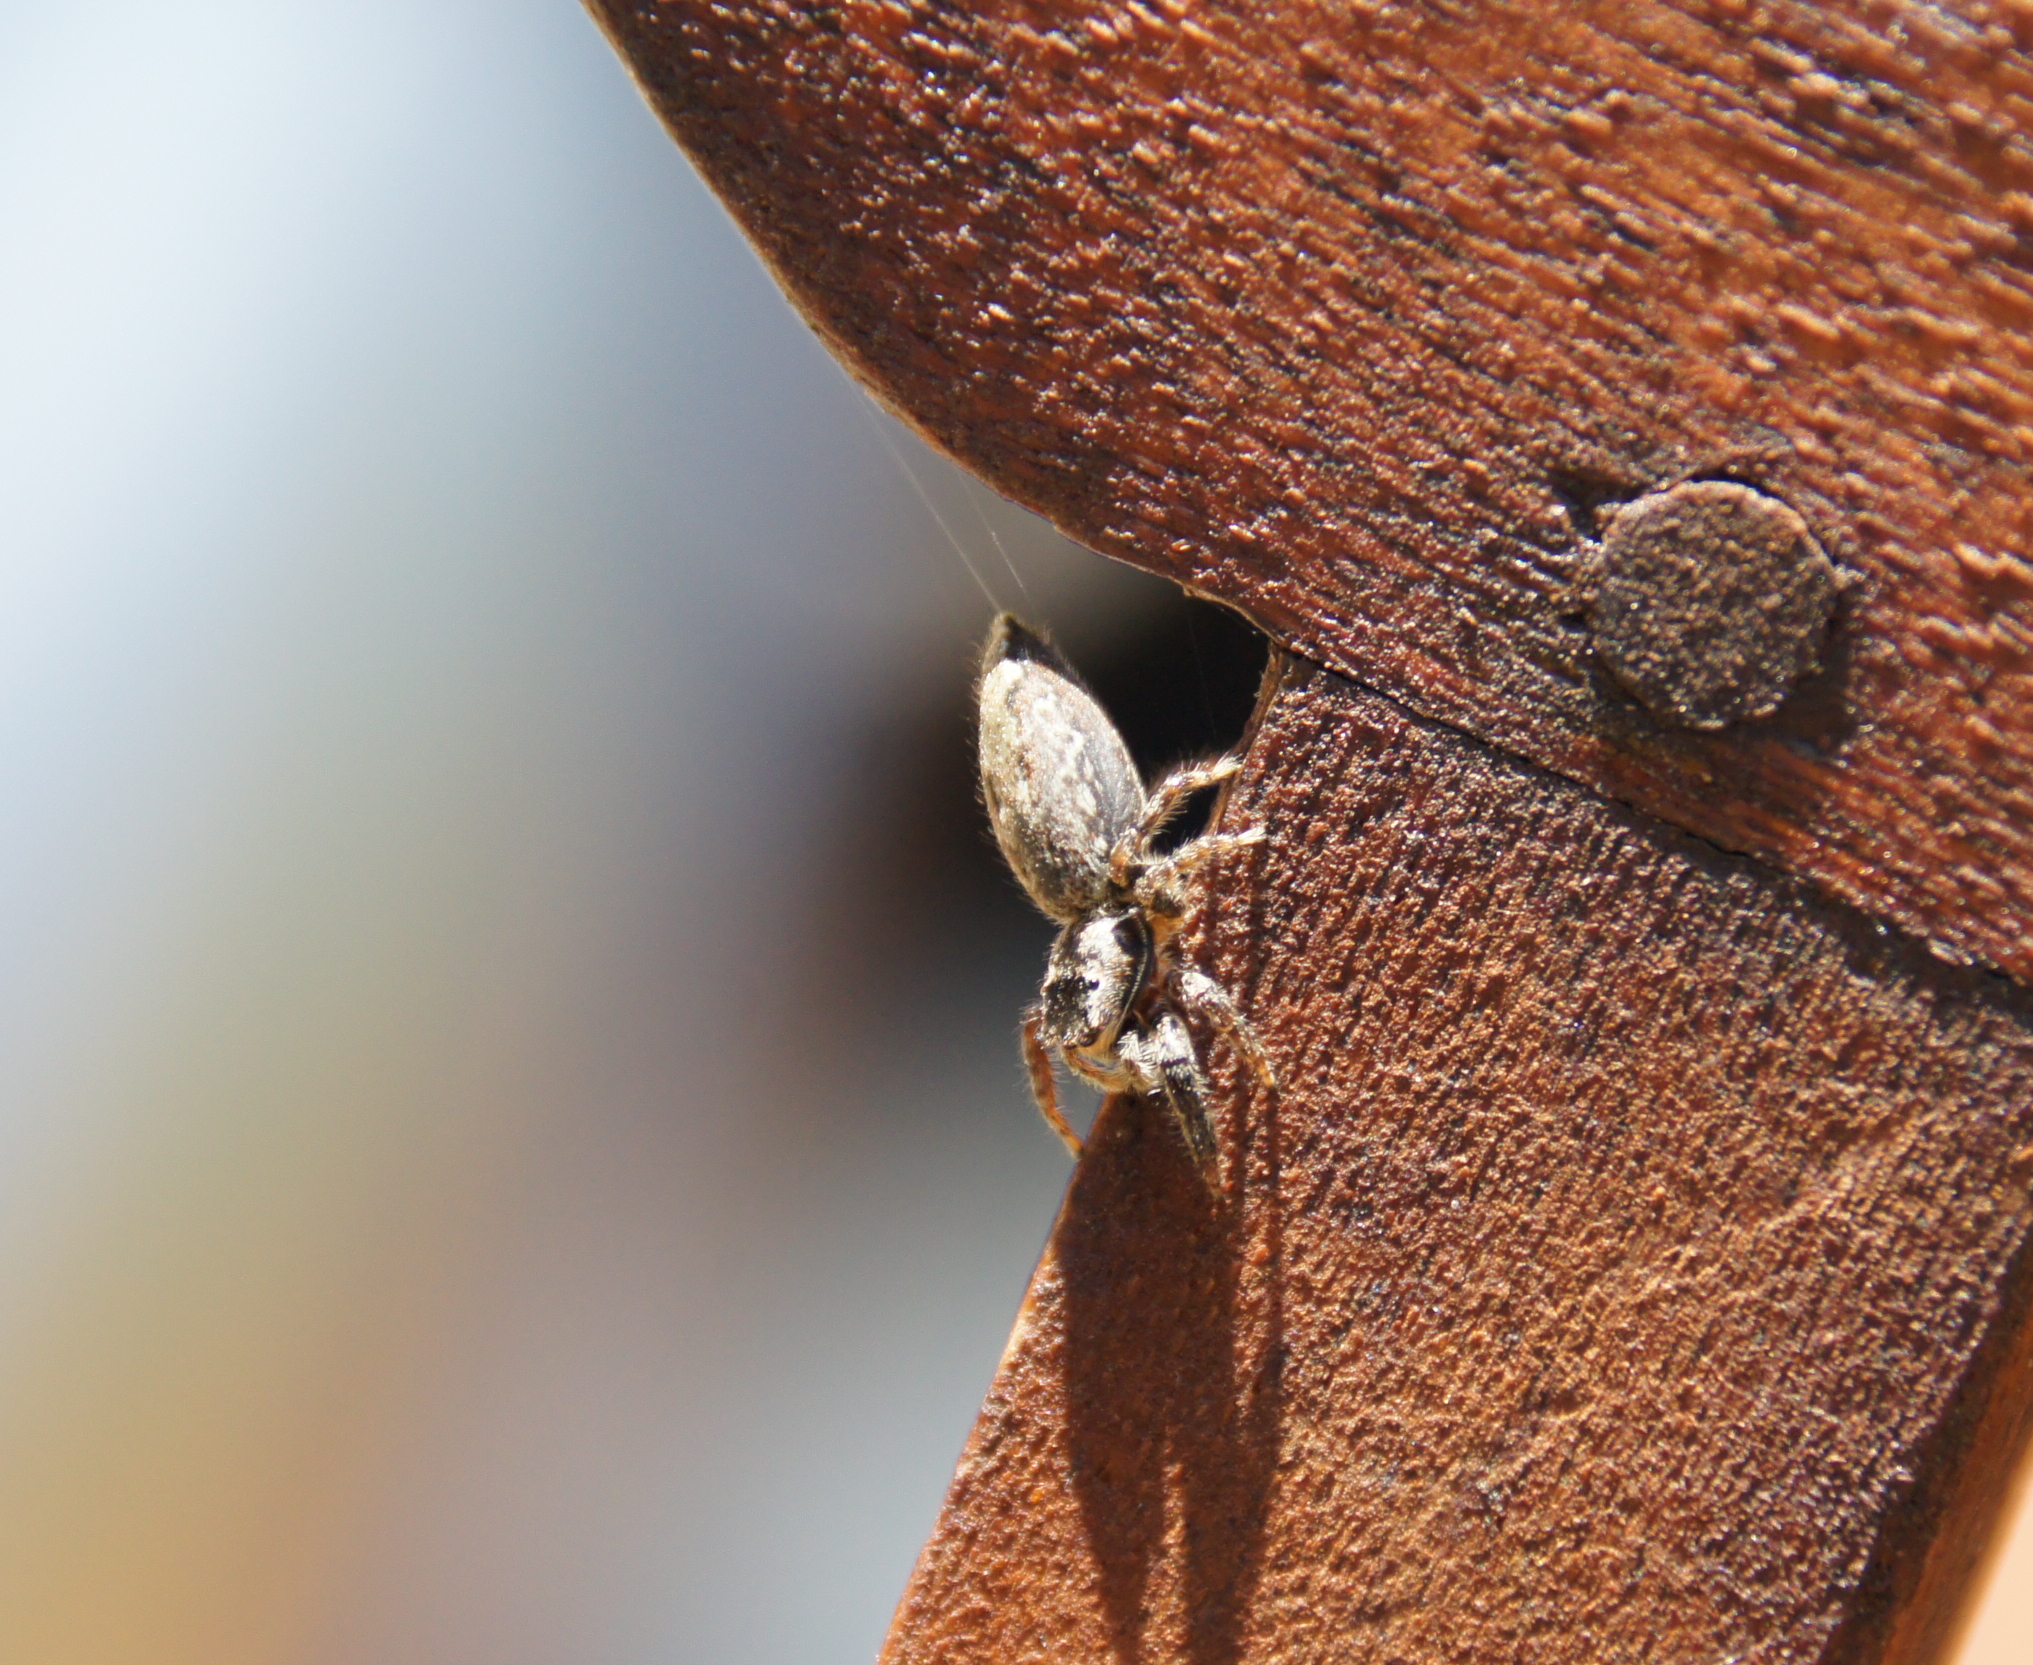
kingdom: Animalia
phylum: Arthropoda
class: Arachnida
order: Araneae
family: Salticidae
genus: Marpissa
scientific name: Marpissa muscosa
